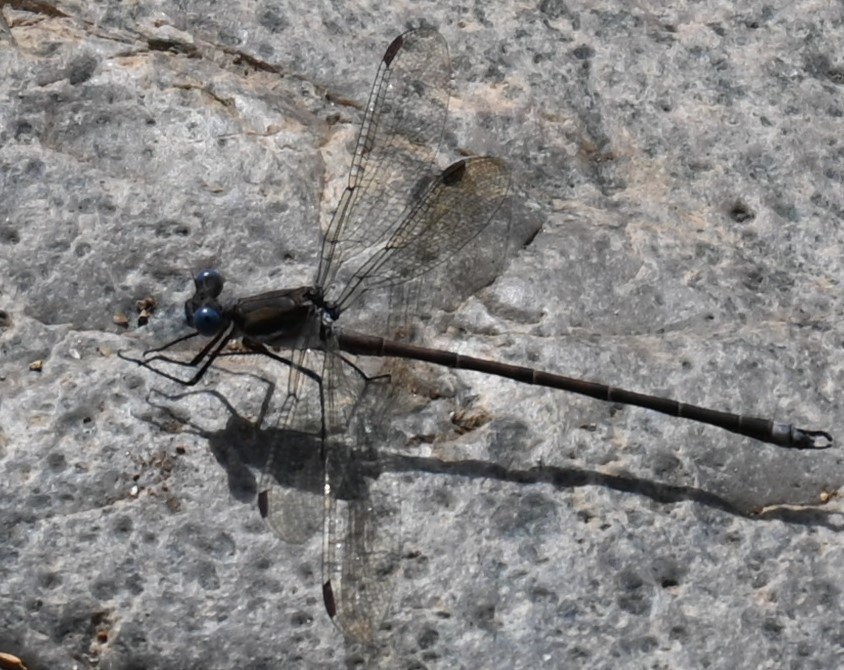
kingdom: Animalia
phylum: Arthropoda
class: Insecta
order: Odonata
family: Lestidae
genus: Archilestes
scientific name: Archilestes californicus
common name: California spreadwing
